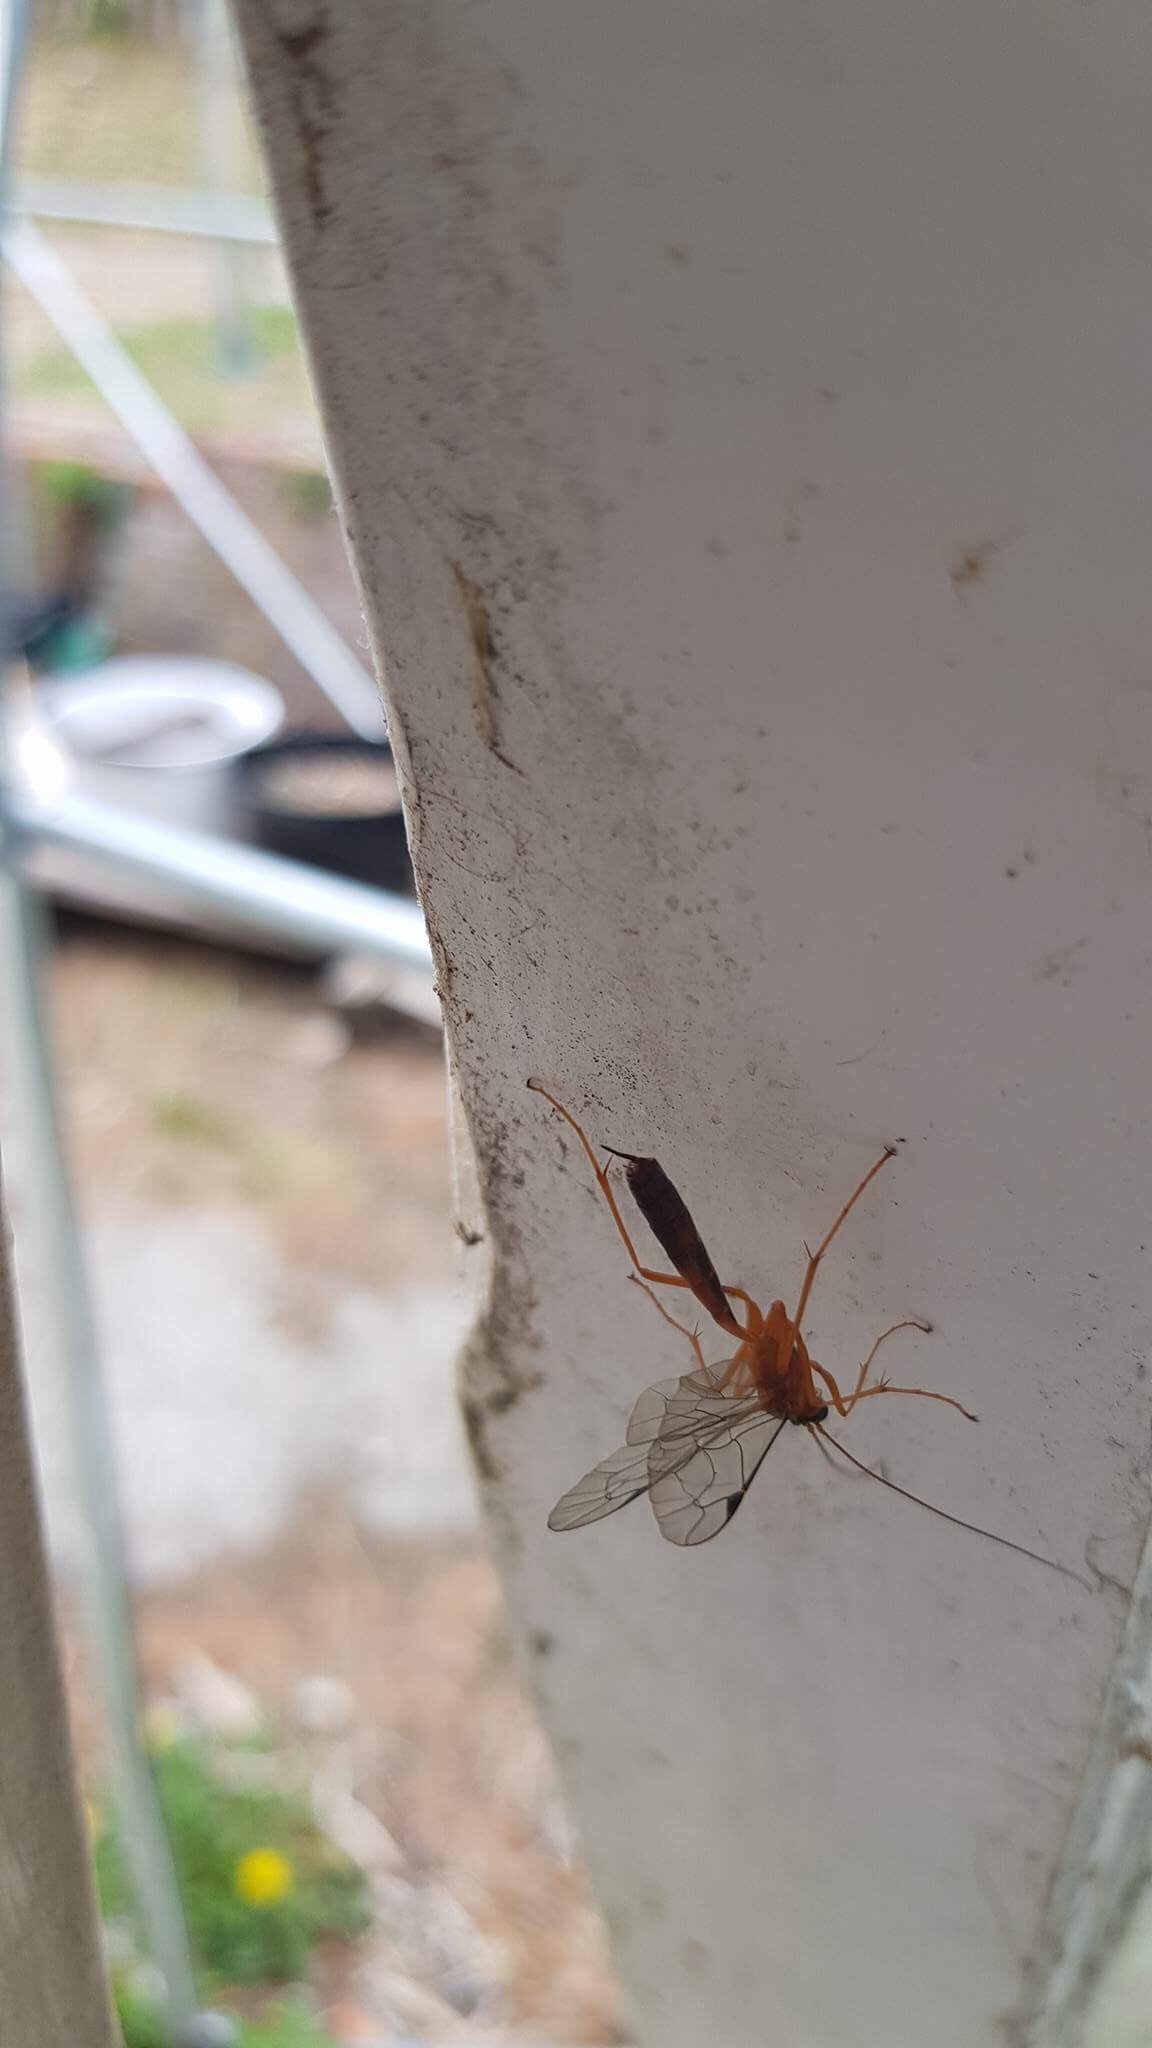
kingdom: Animalia
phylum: Arthropoda
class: Insecta
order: Hymenoptera
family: Ichneumonidae
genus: Netelia
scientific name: Netelia ephippiata
